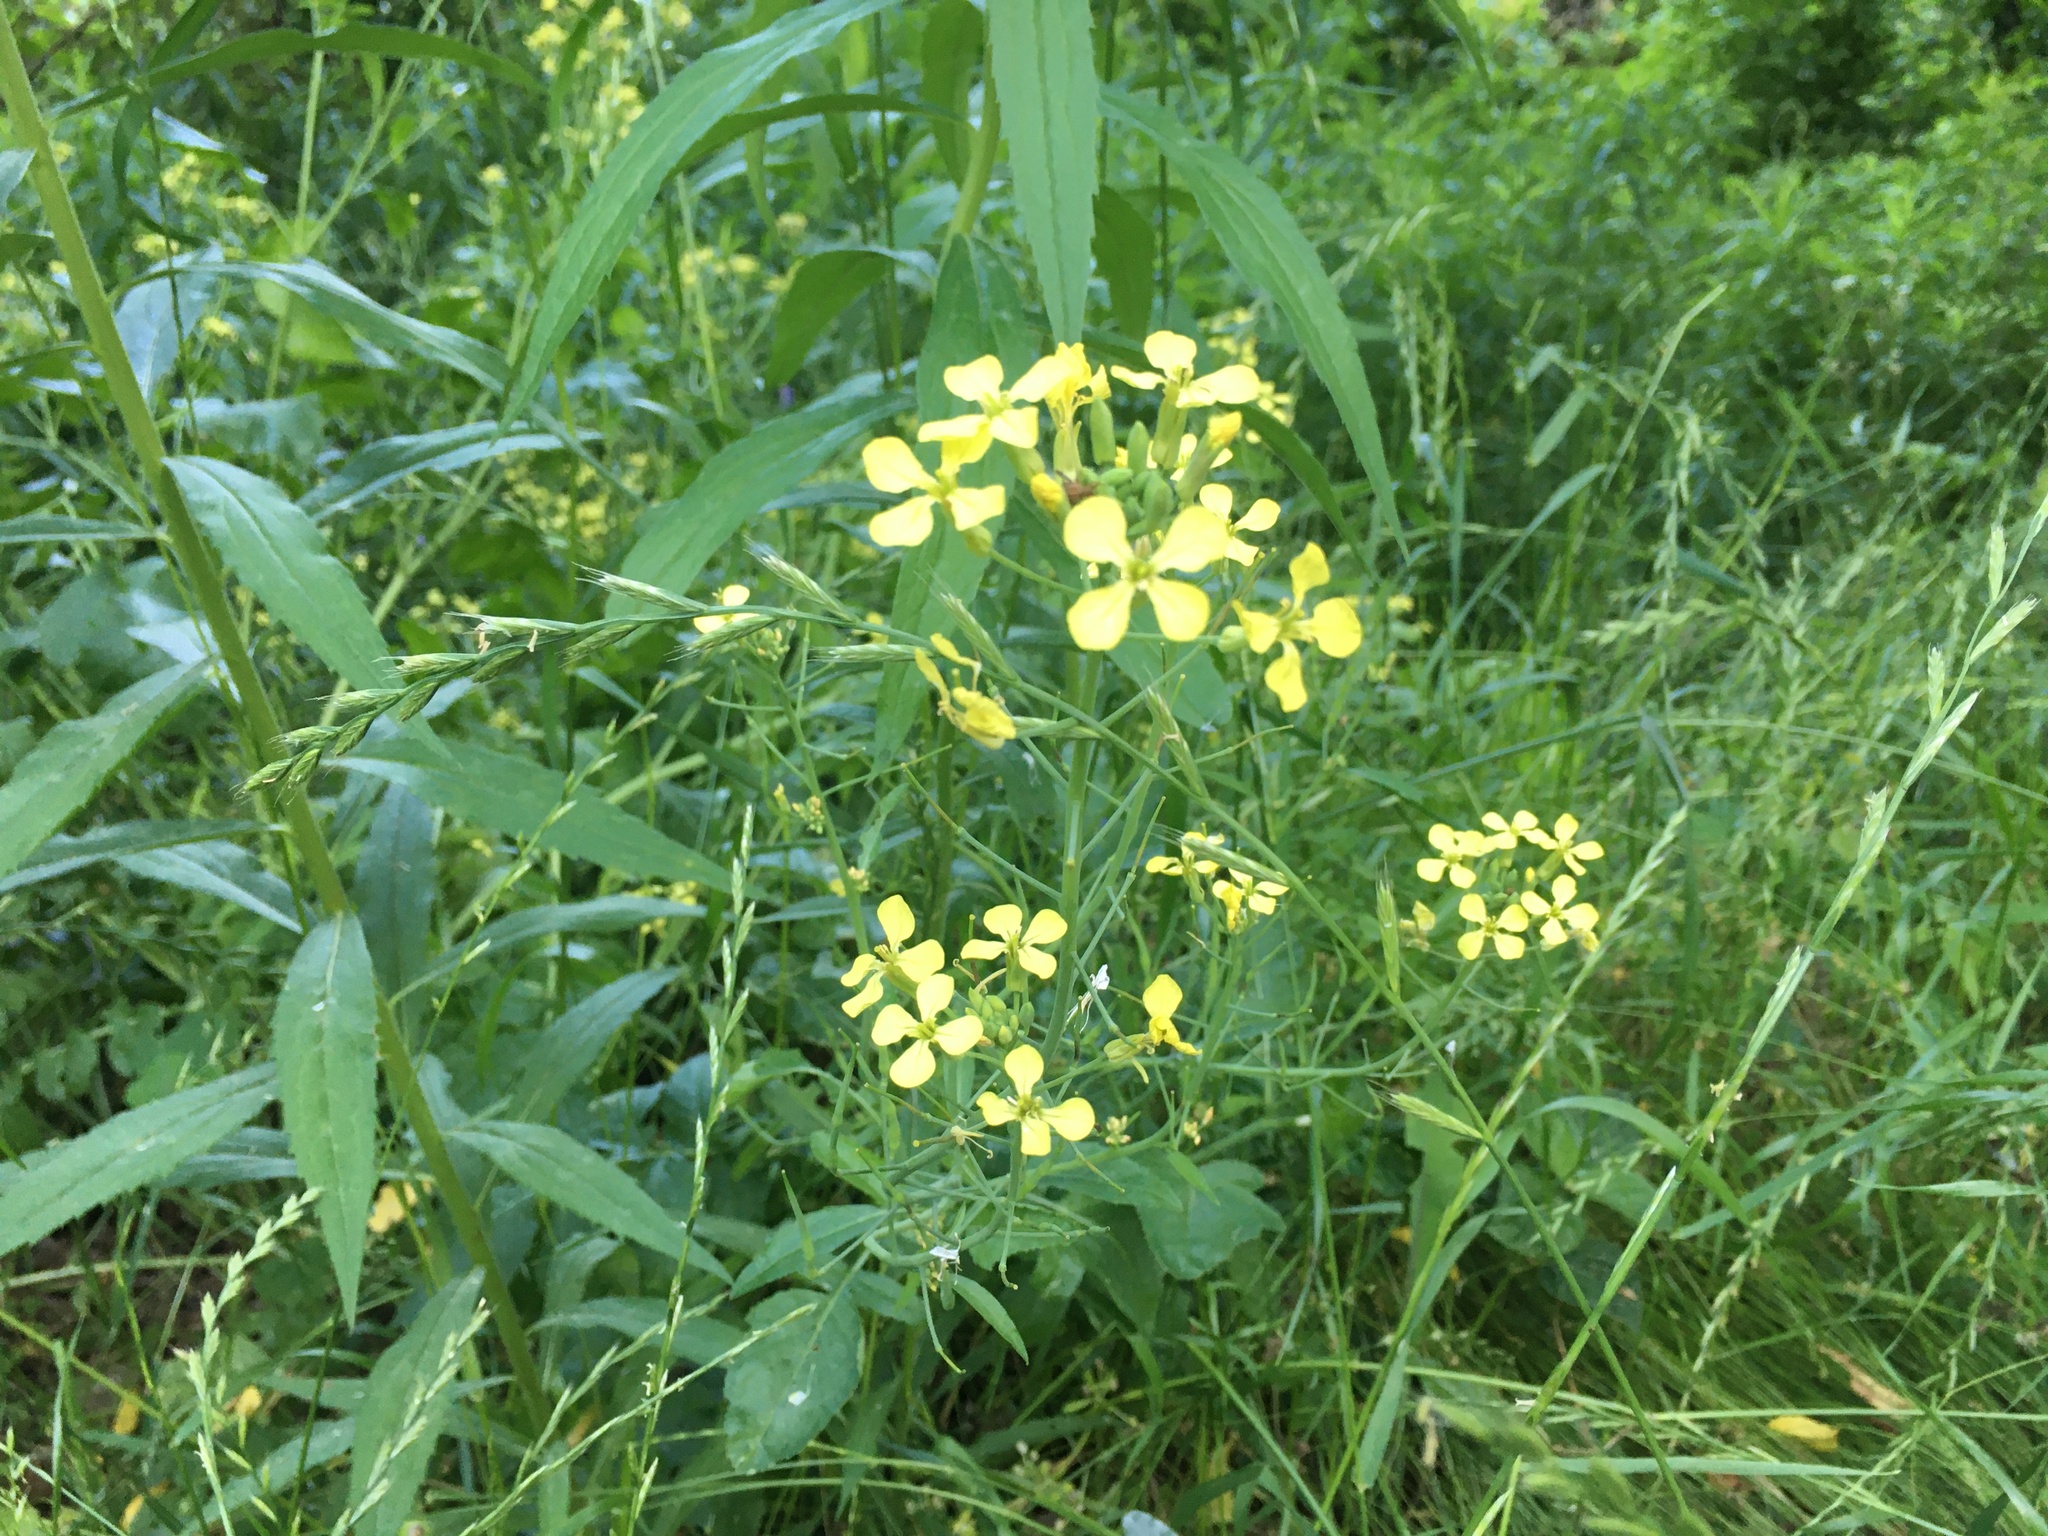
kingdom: Plantae
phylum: Tracheophyta
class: Magnoliopsida
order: Brassicales
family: Brassicaceae
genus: Raphanus
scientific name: Raphanus raphanistrum
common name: Wild radish
